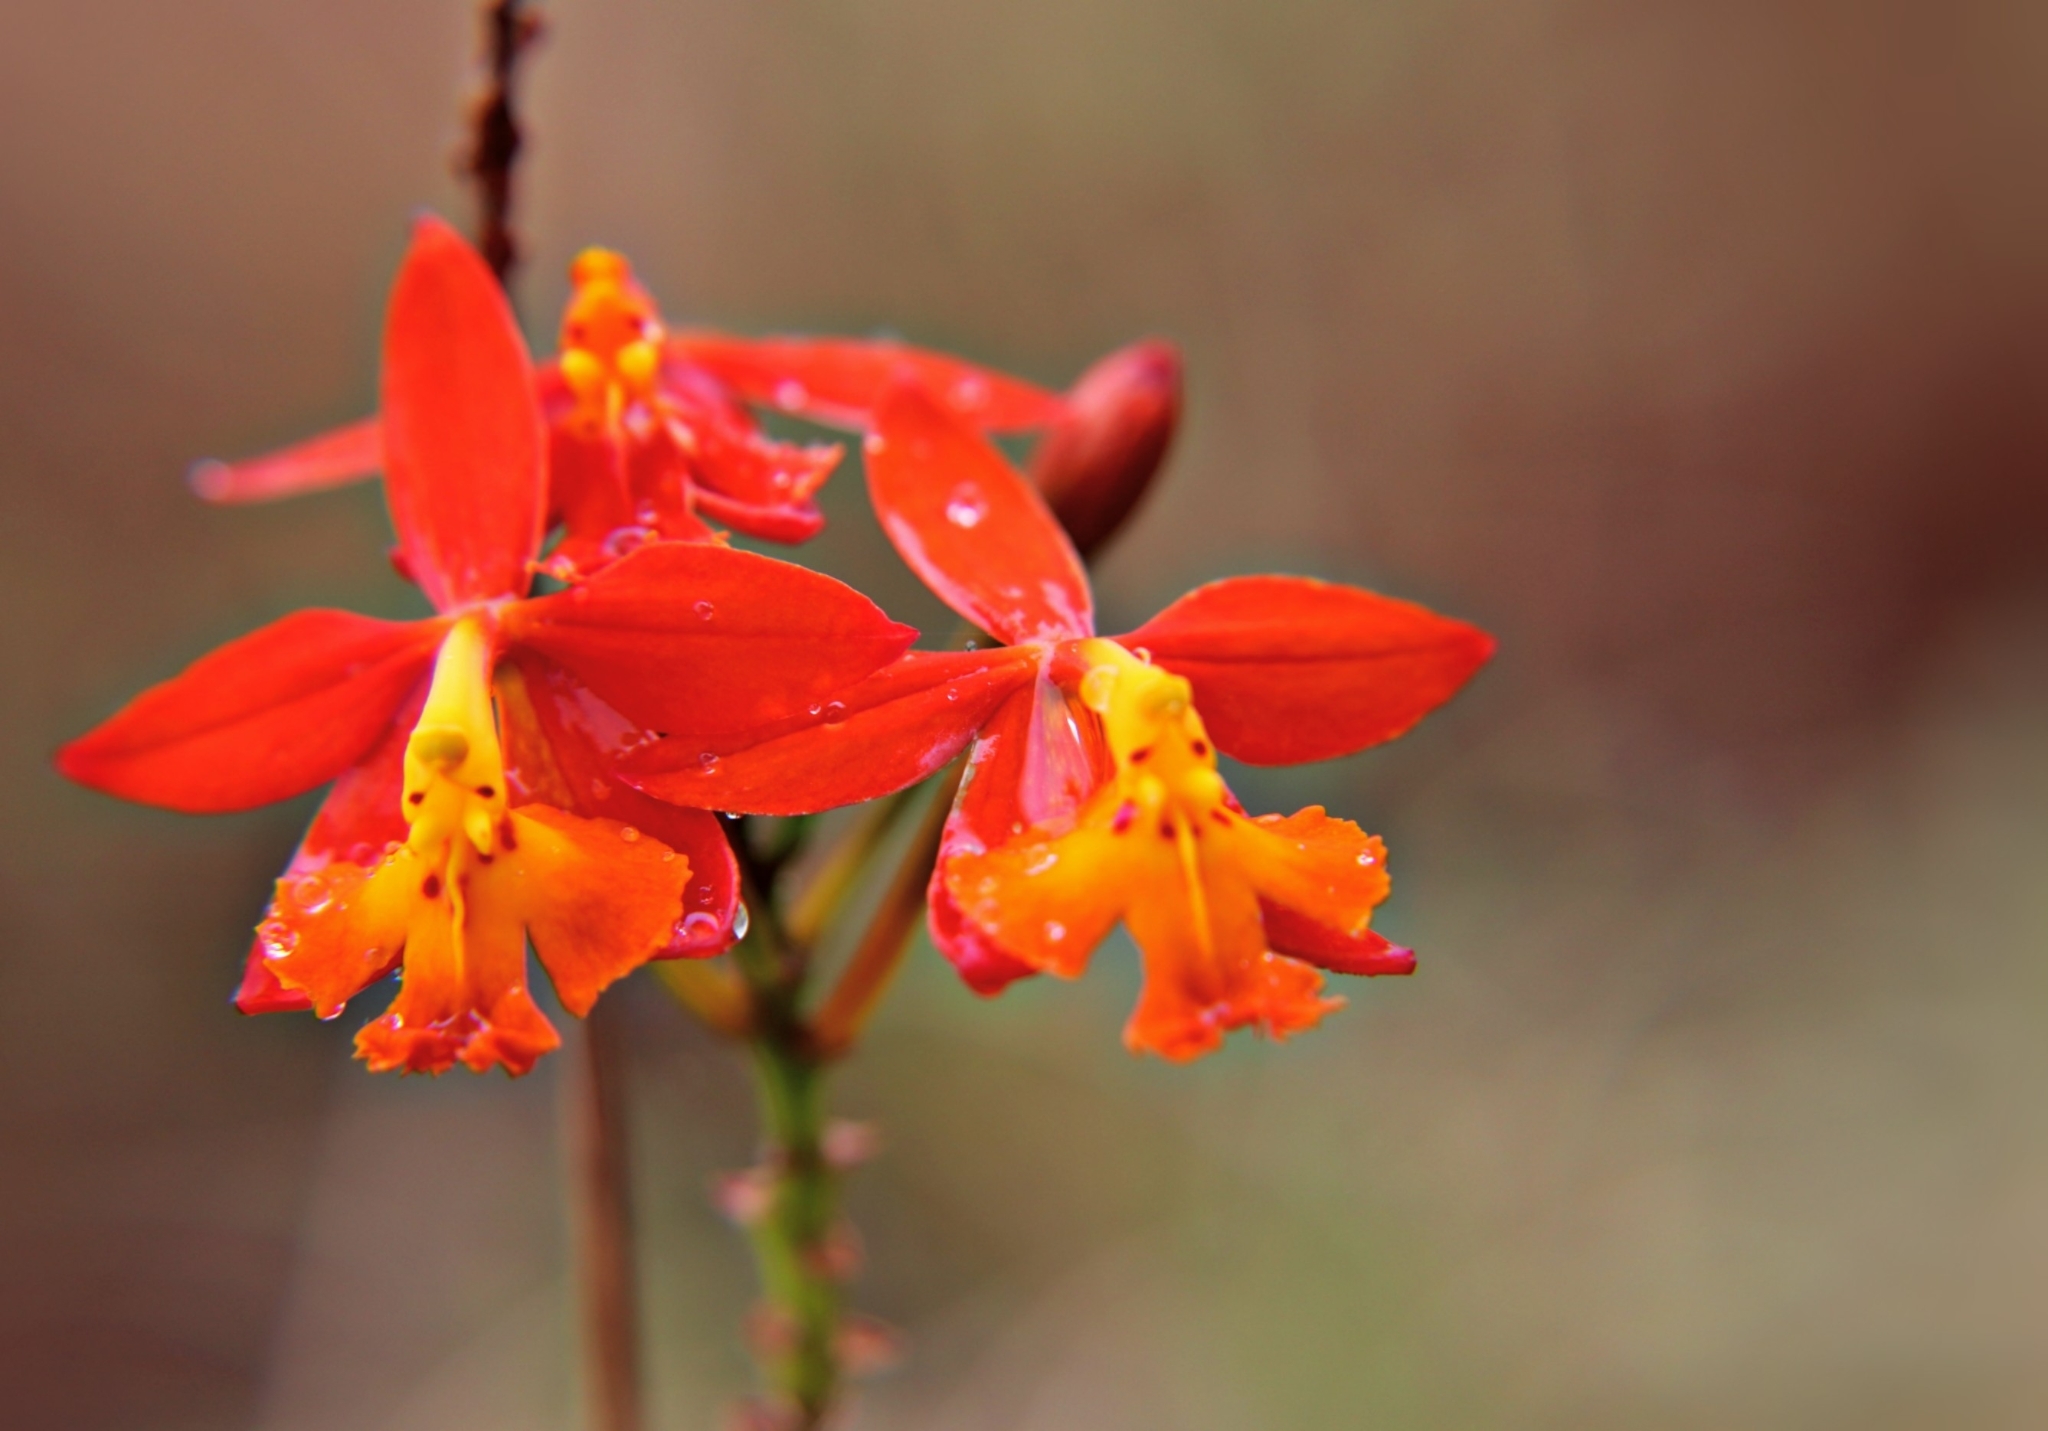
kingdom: Plantae
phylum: Tracheophyta
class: Liliopsida
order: Asparagales
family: Orchidaceae
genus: Epidendrum
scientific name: Epidendrum radicans
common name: Fire star orchid
